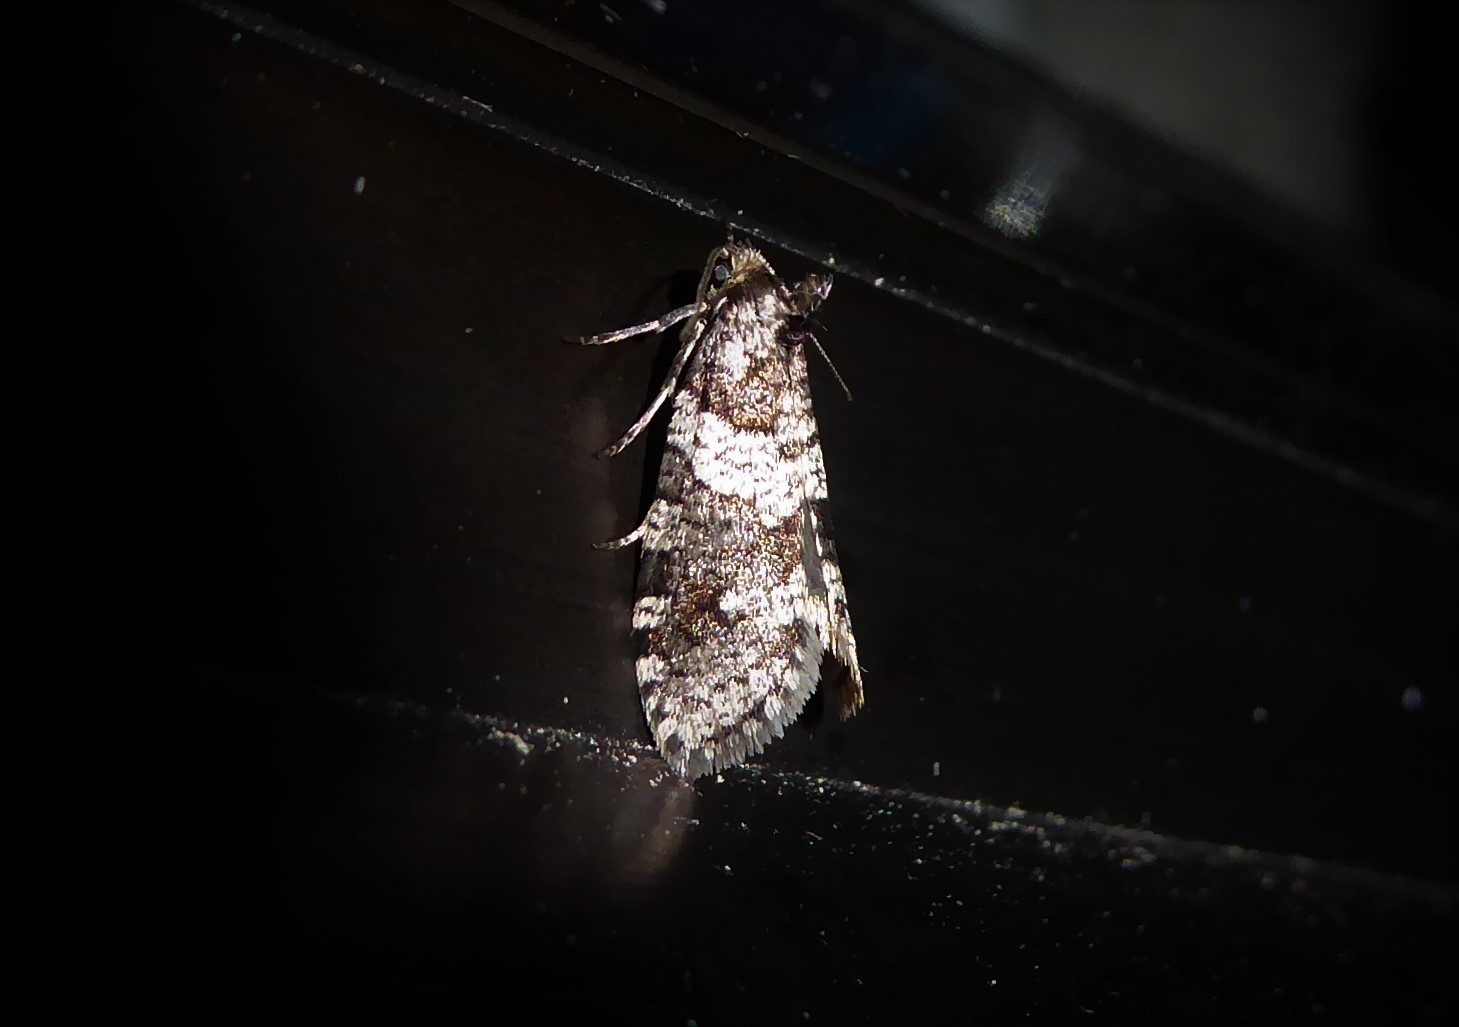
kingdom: Animalia
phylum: Arthropoda
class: Insecta
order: Lepidoptera
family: Psychidae
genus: Lepidoscia
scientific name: Lepidoscia heliochares
